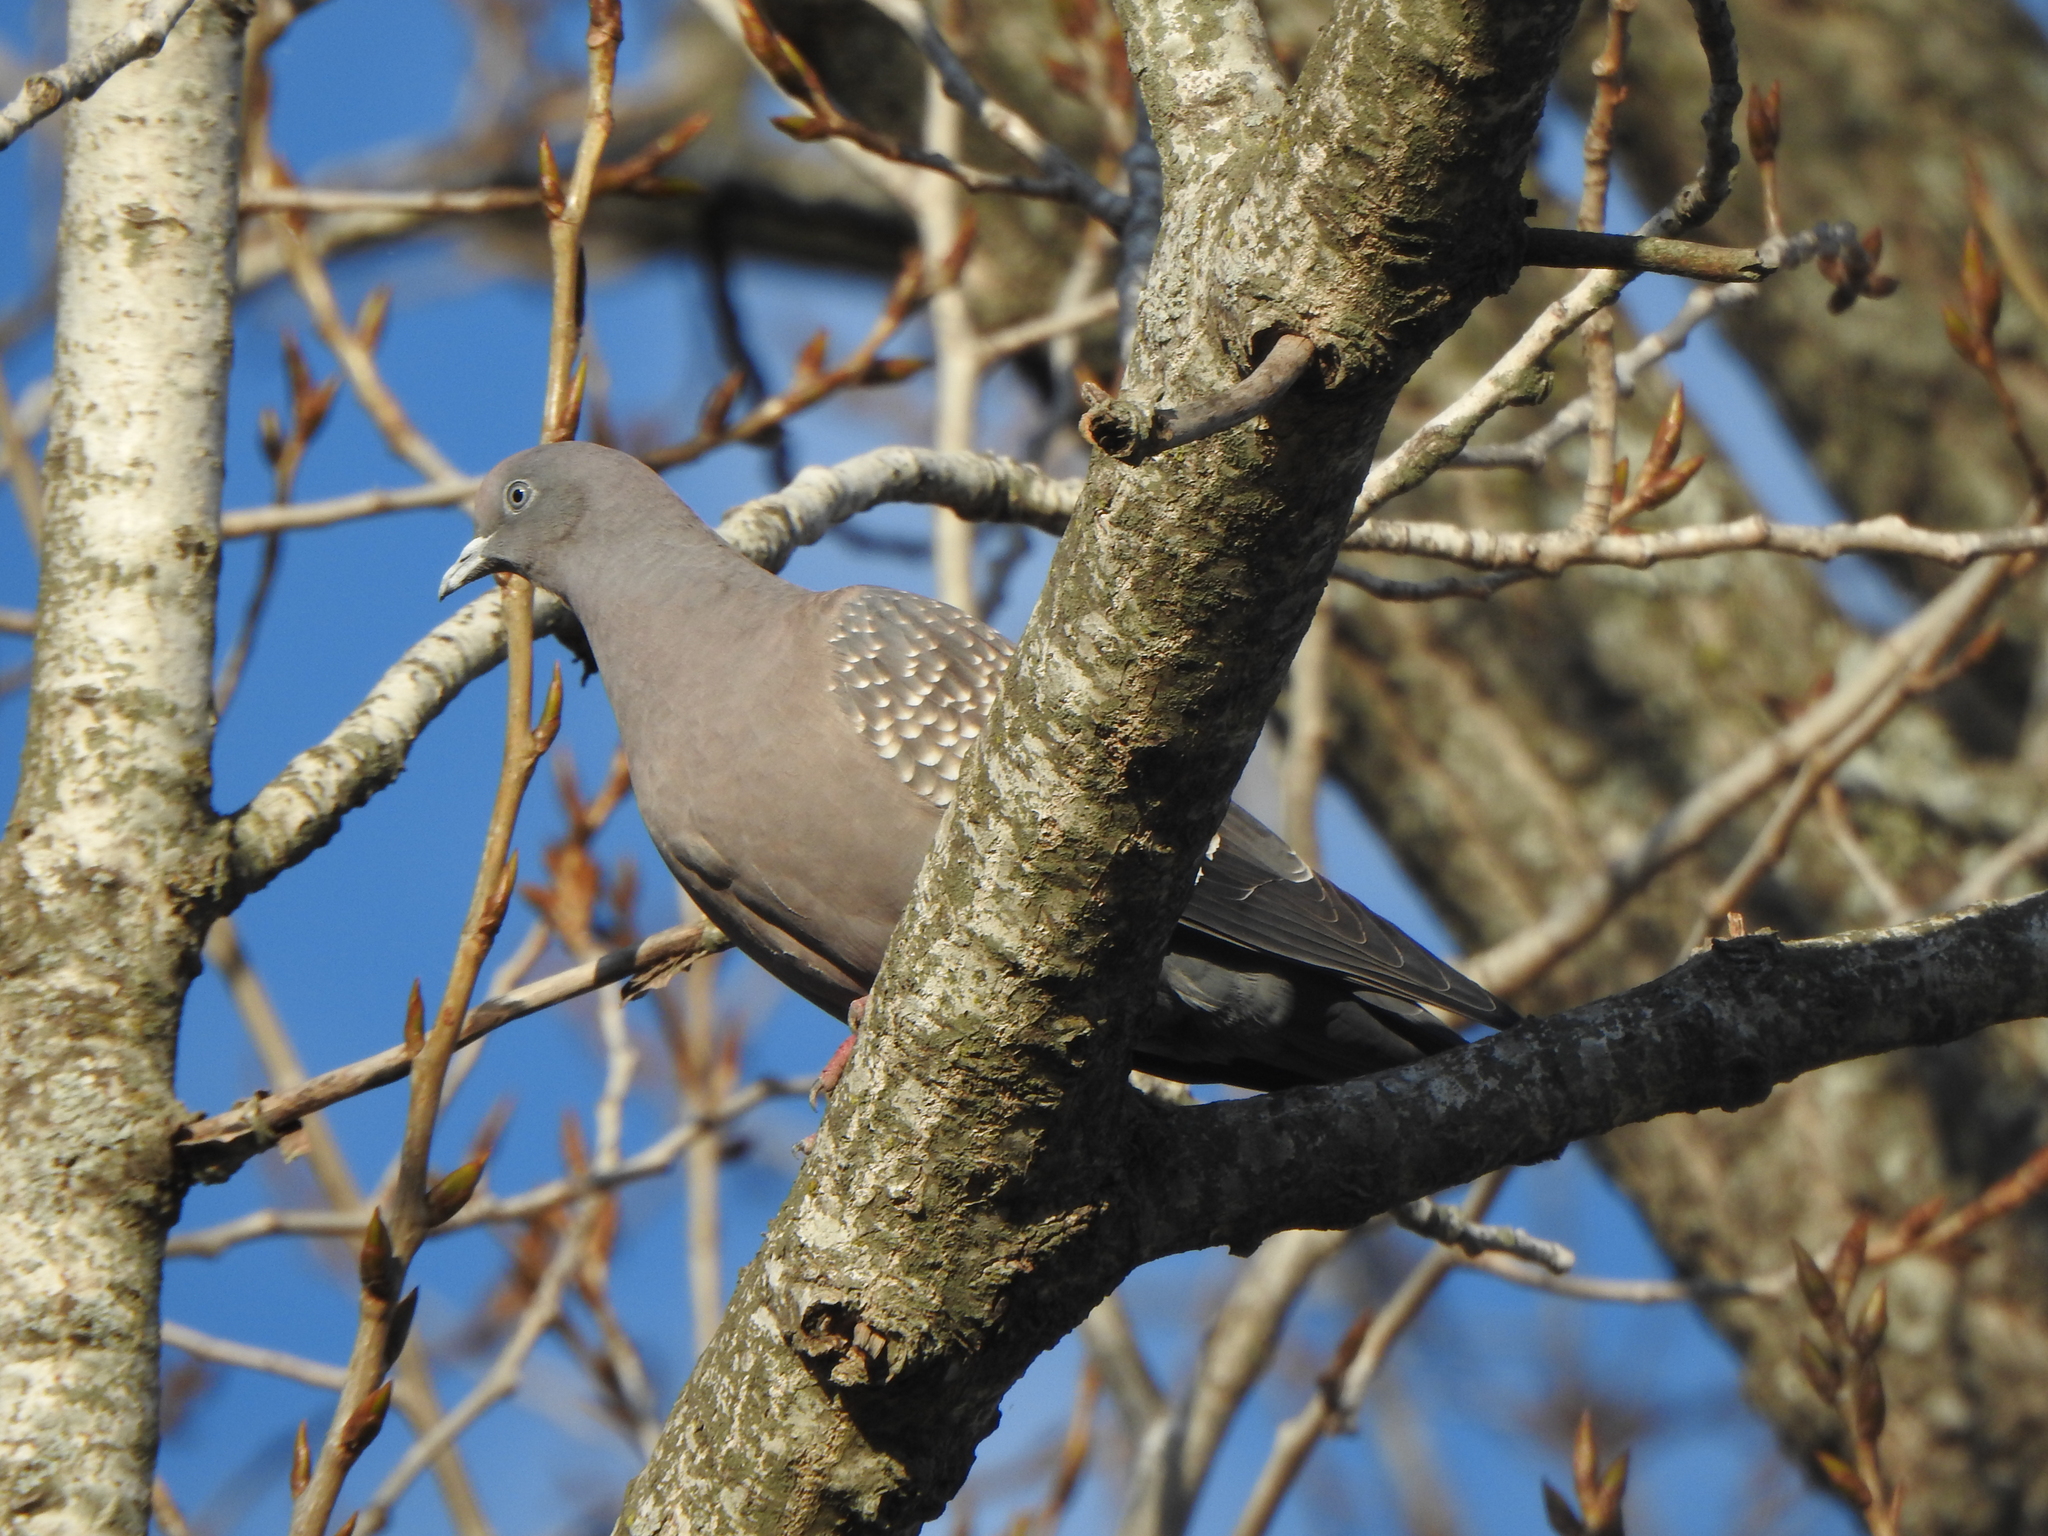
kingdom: Animalia
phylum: Chordata
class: Aves
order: Columbiformes
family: Columbidae
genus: Patagioenas
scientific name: Patagioenas maculosa
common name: Spot-winged pigeon
